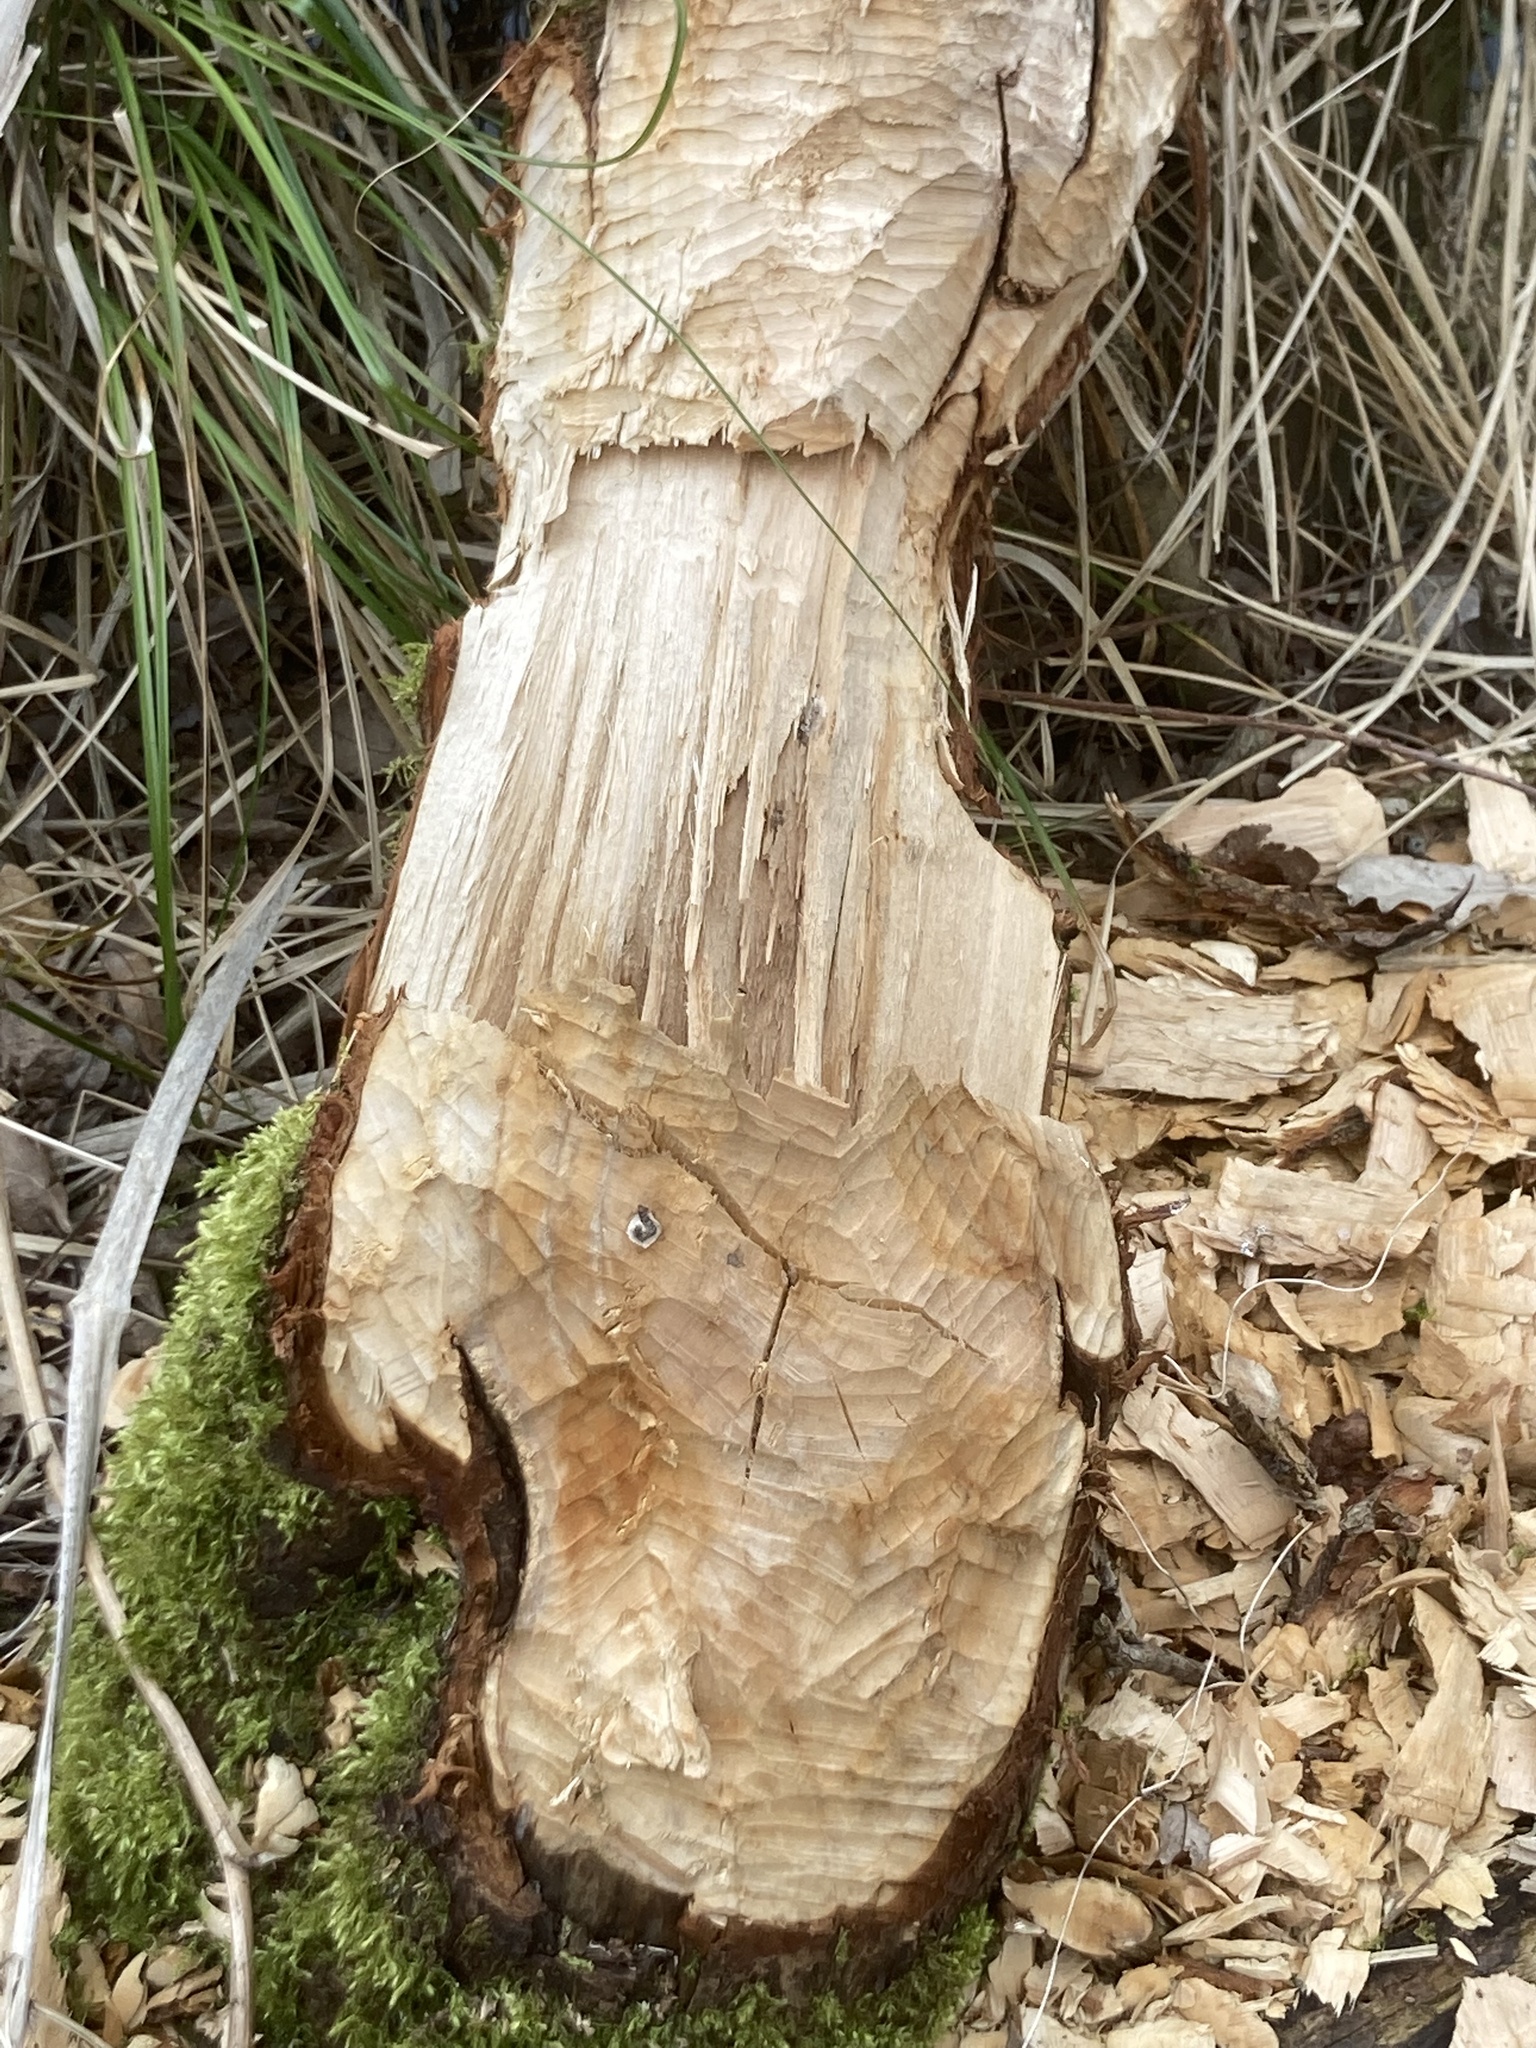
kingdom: Animalia
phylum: Chordata
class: Mammalia
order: Rodentia
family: Castoridae
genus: Castor
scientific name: Castor fiber
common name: Eurasian beaver
